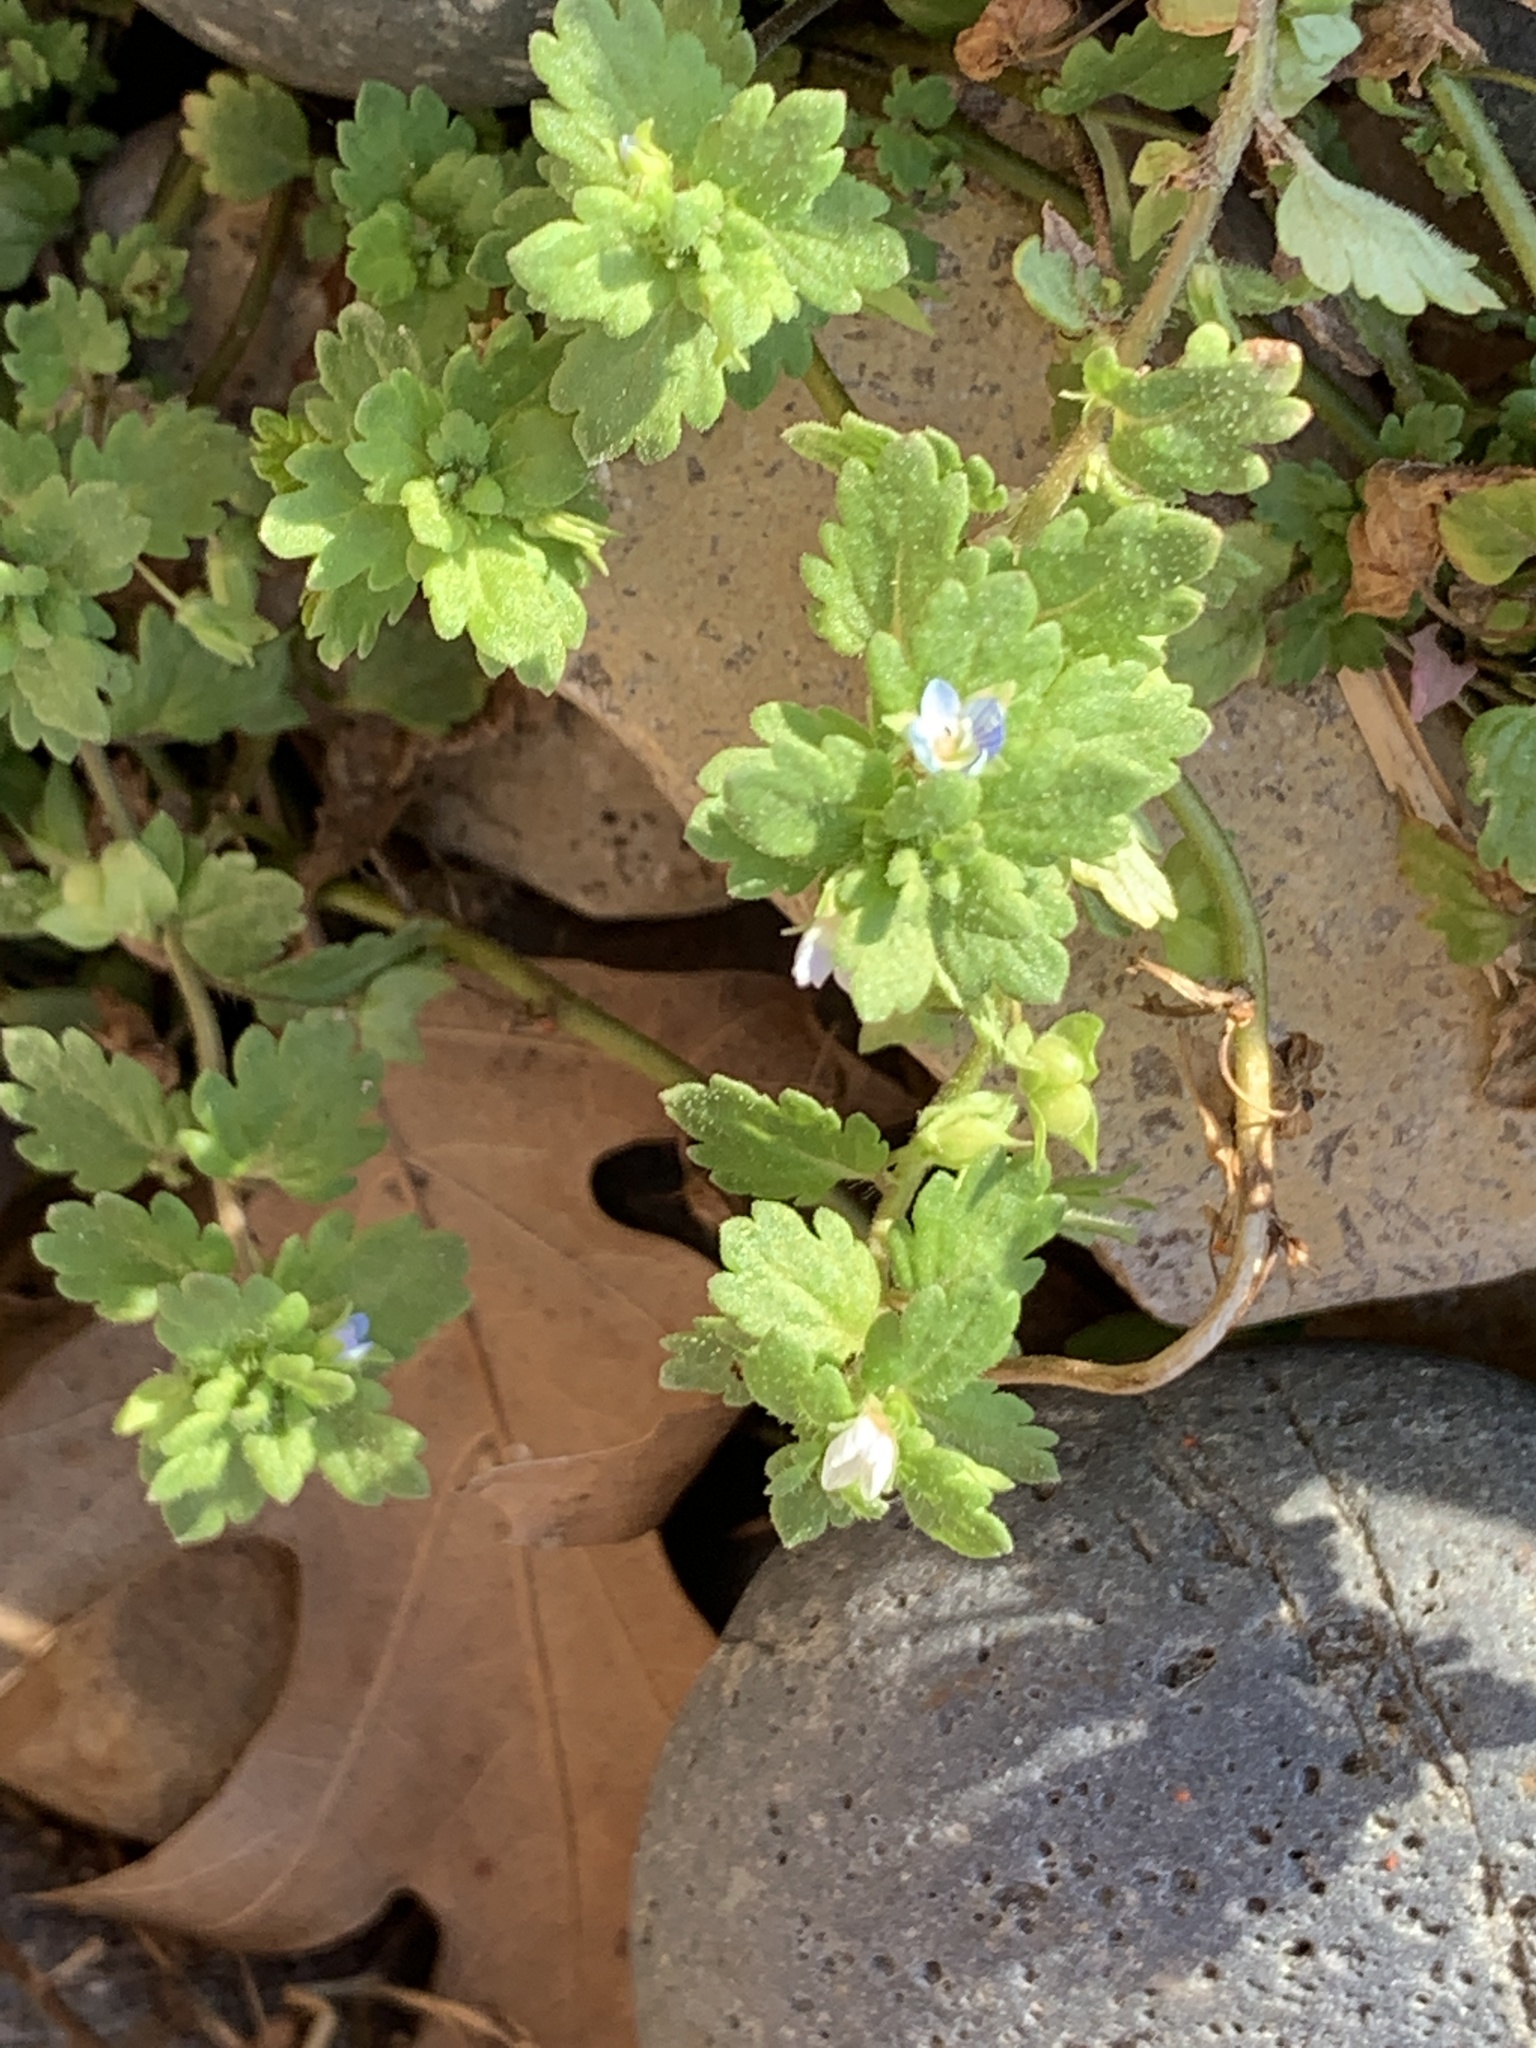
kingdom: Plantae
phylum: Tracheophyta
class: Magnoliopsida
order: Lamiales
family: Plantaginaceae
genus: Veronica
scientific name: Veronica polita
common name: Grey field-speedwell
